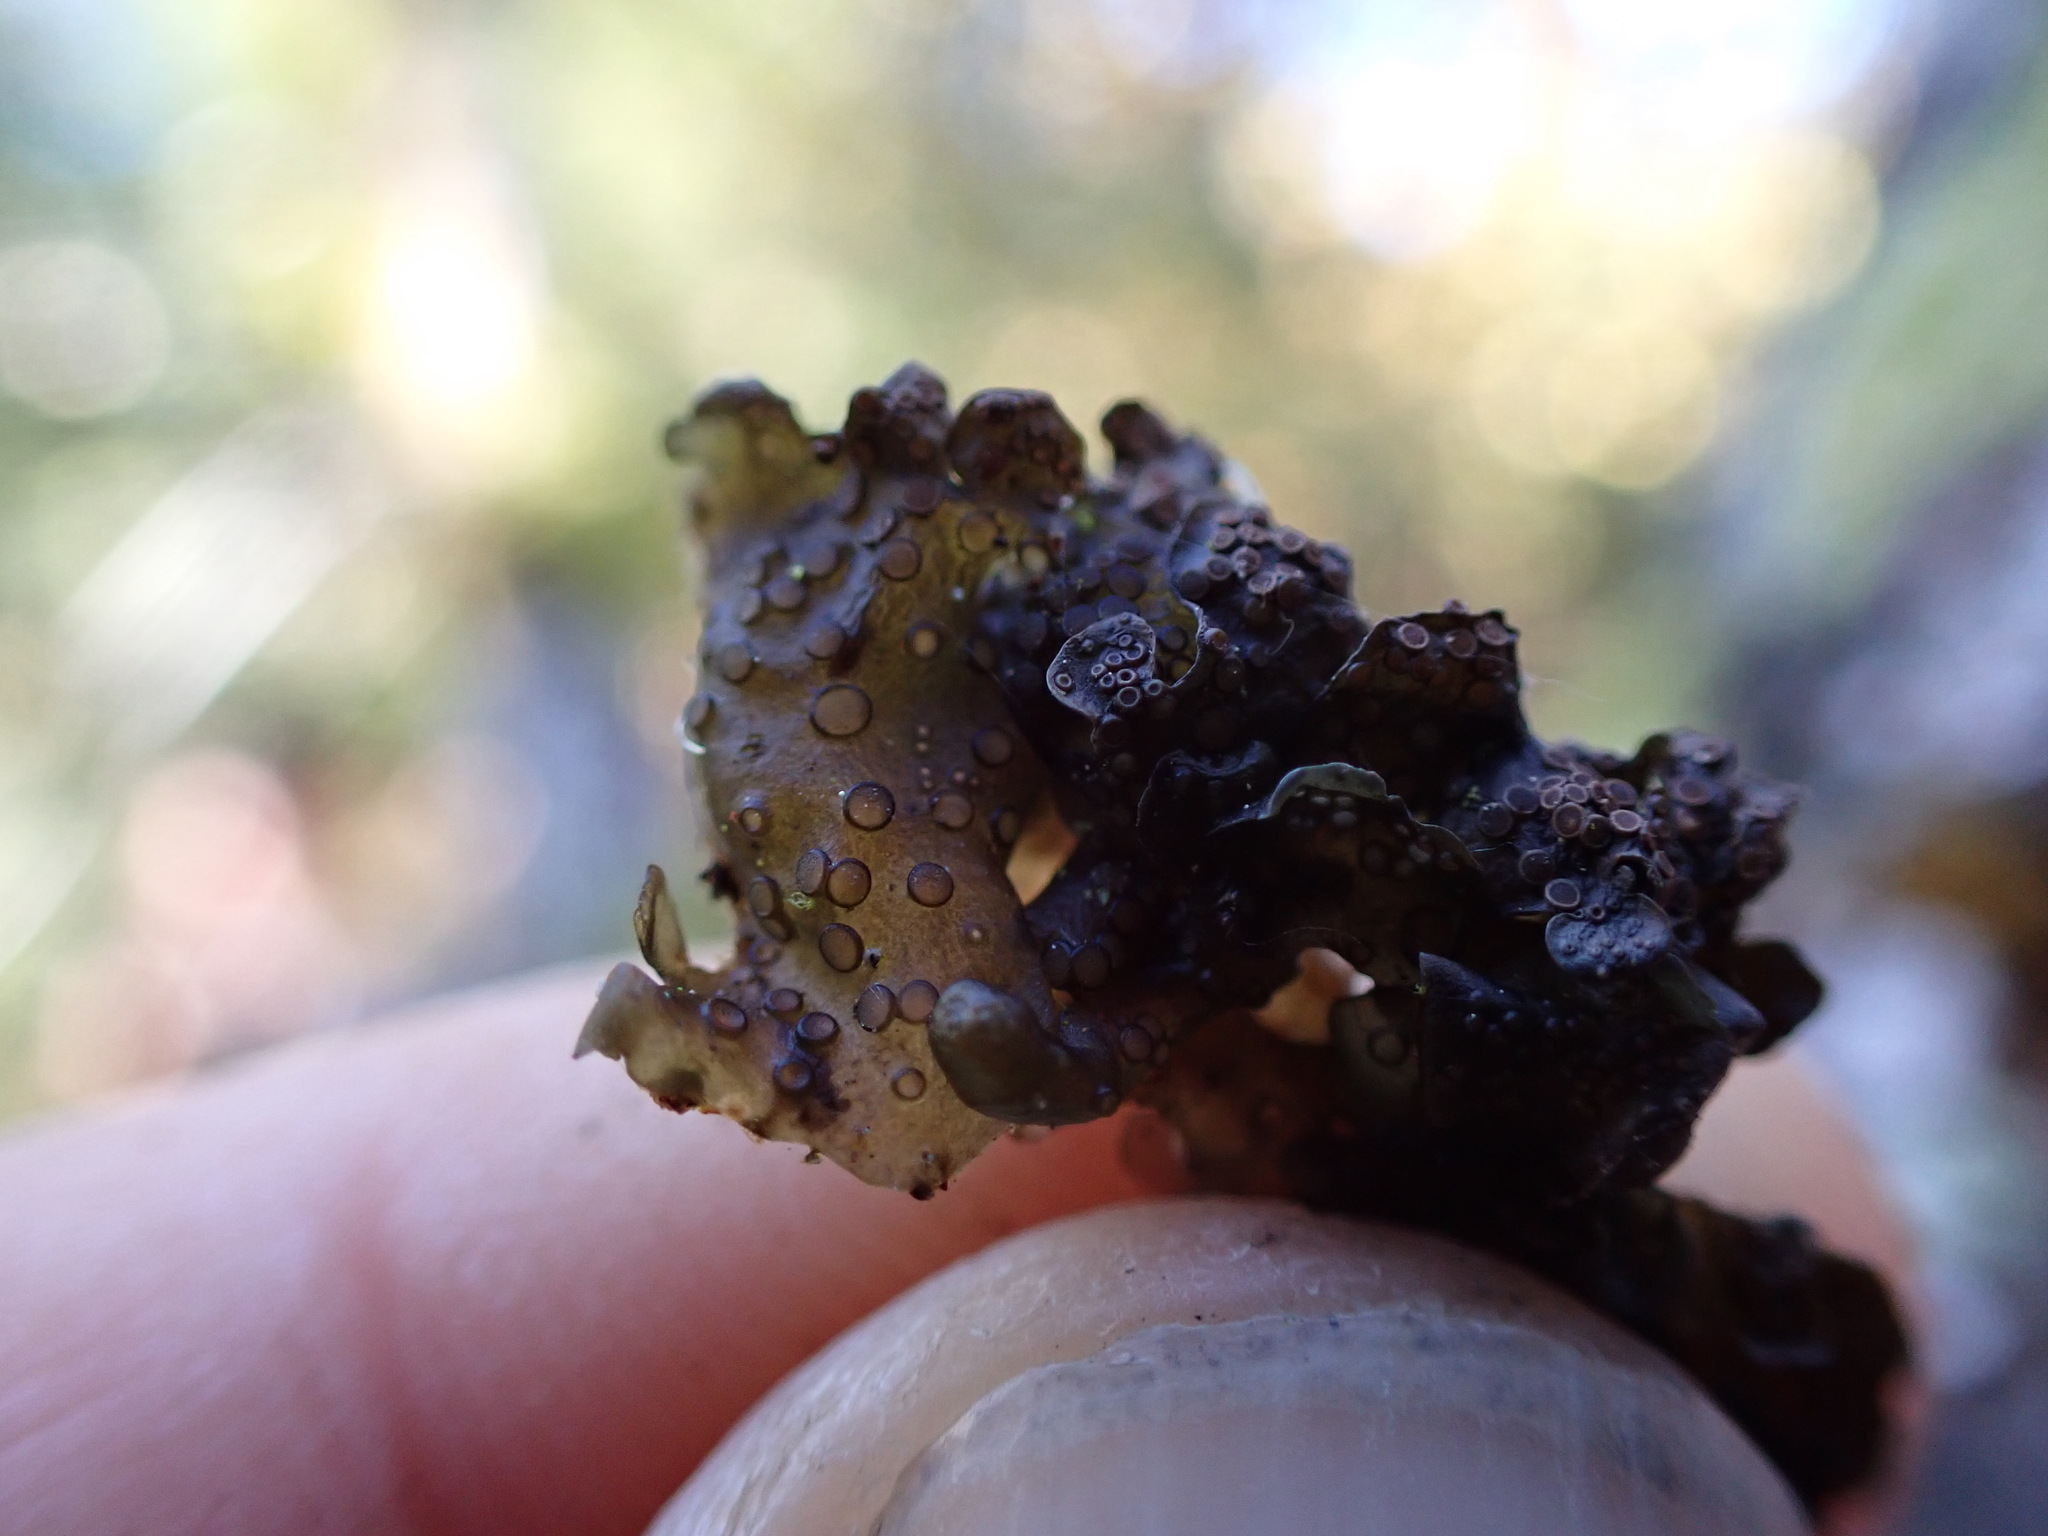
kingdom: Fungi
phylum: Ascomycota
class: Lecanoromycetes
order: Peltigerales
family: Collemataceae
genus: Scytinium
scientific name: Scytinium polycarpum
